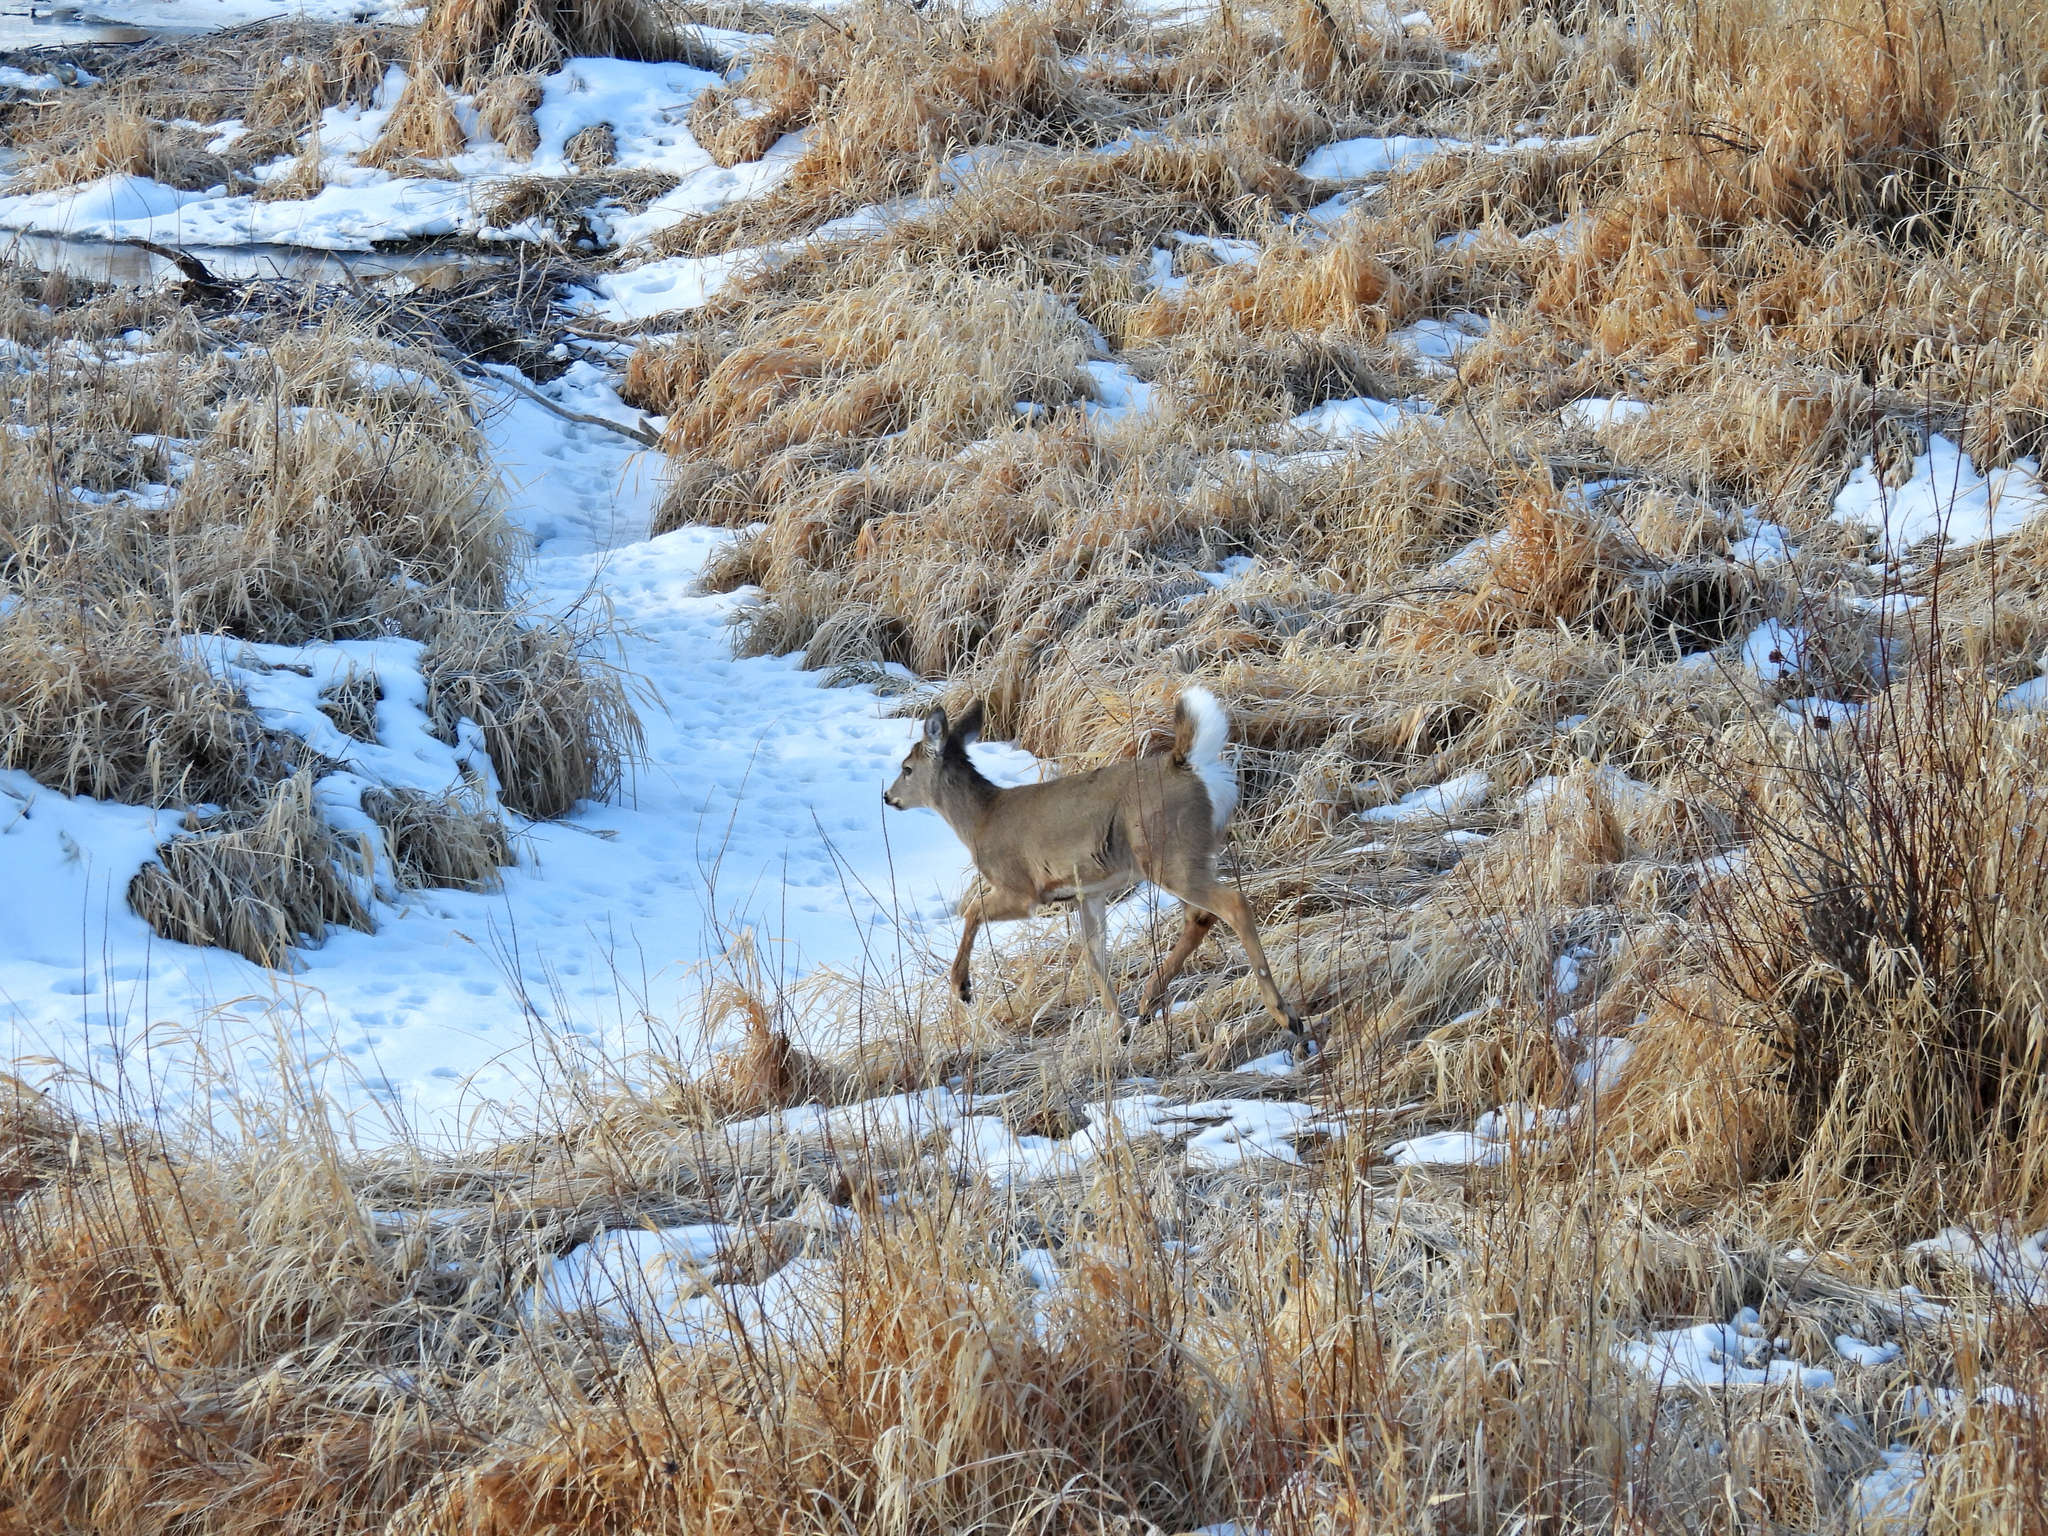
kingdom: Animalia
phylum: Chordata
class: Mammalia
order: Artiodactyla
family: Cervidae
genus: Odocoileus
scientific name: Odocoileus virginianus
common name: White-tailed deer
